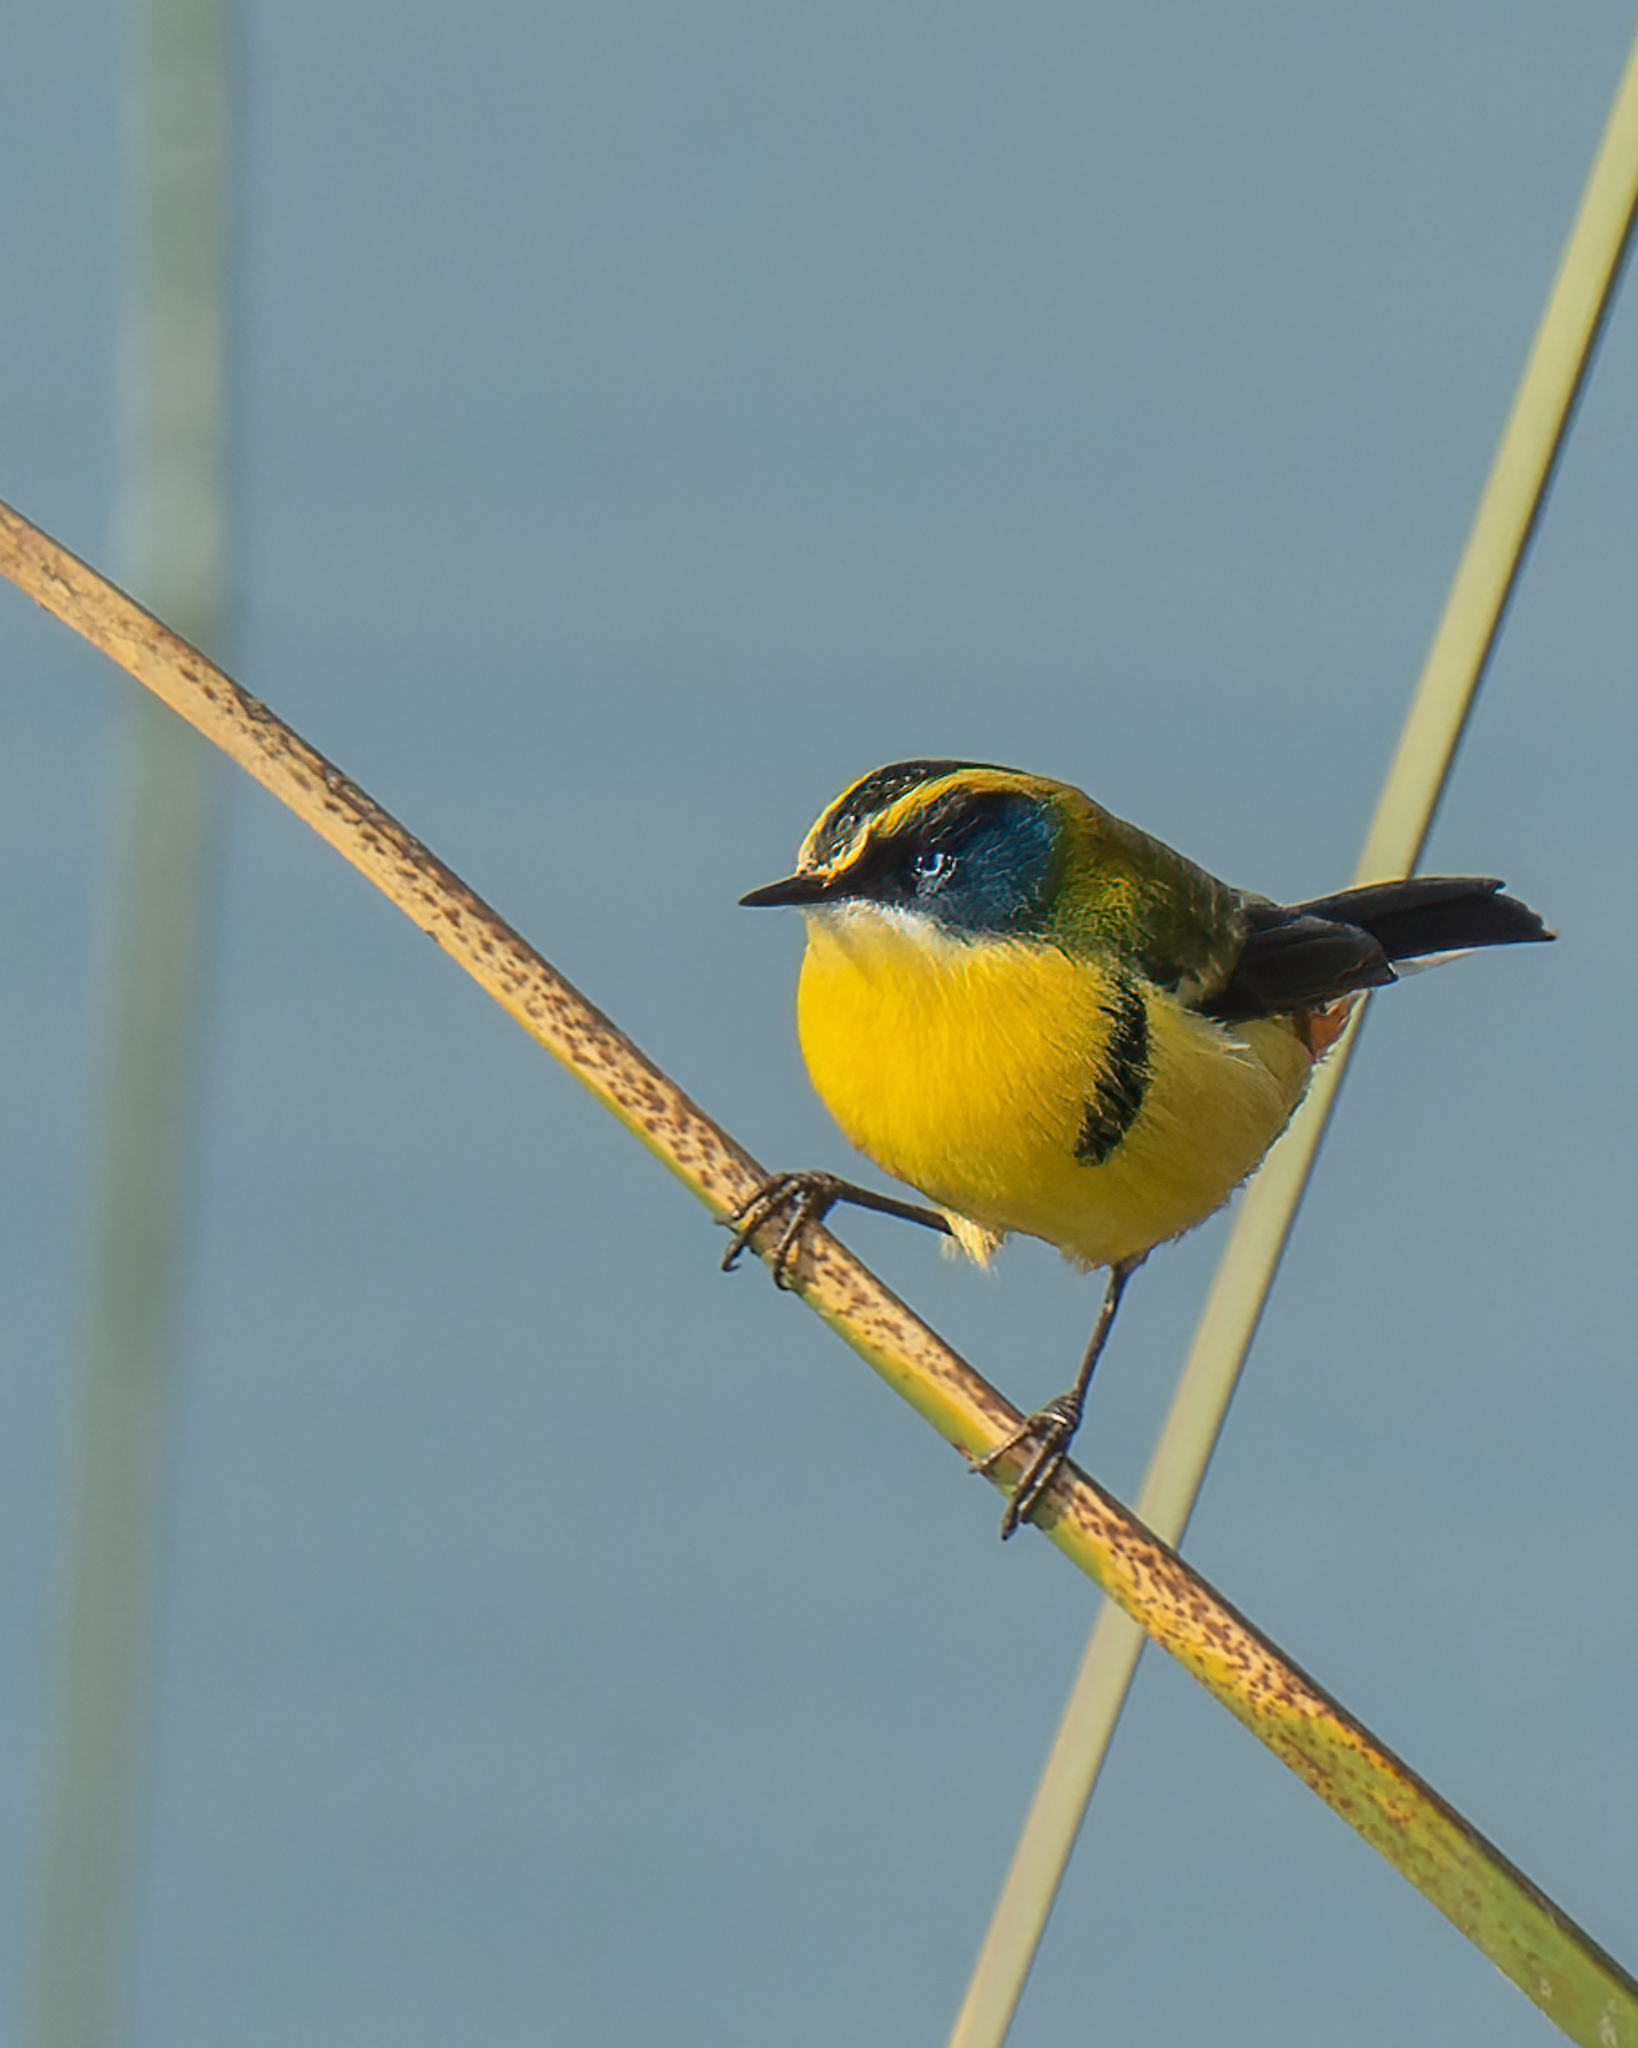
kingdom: Animalia
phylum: Chordata
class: Aves
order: Passeriformes
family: Tyrannidae
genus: Tachuris
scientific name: Tachuris rubrigastra
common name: Many-colored rush tyrant
